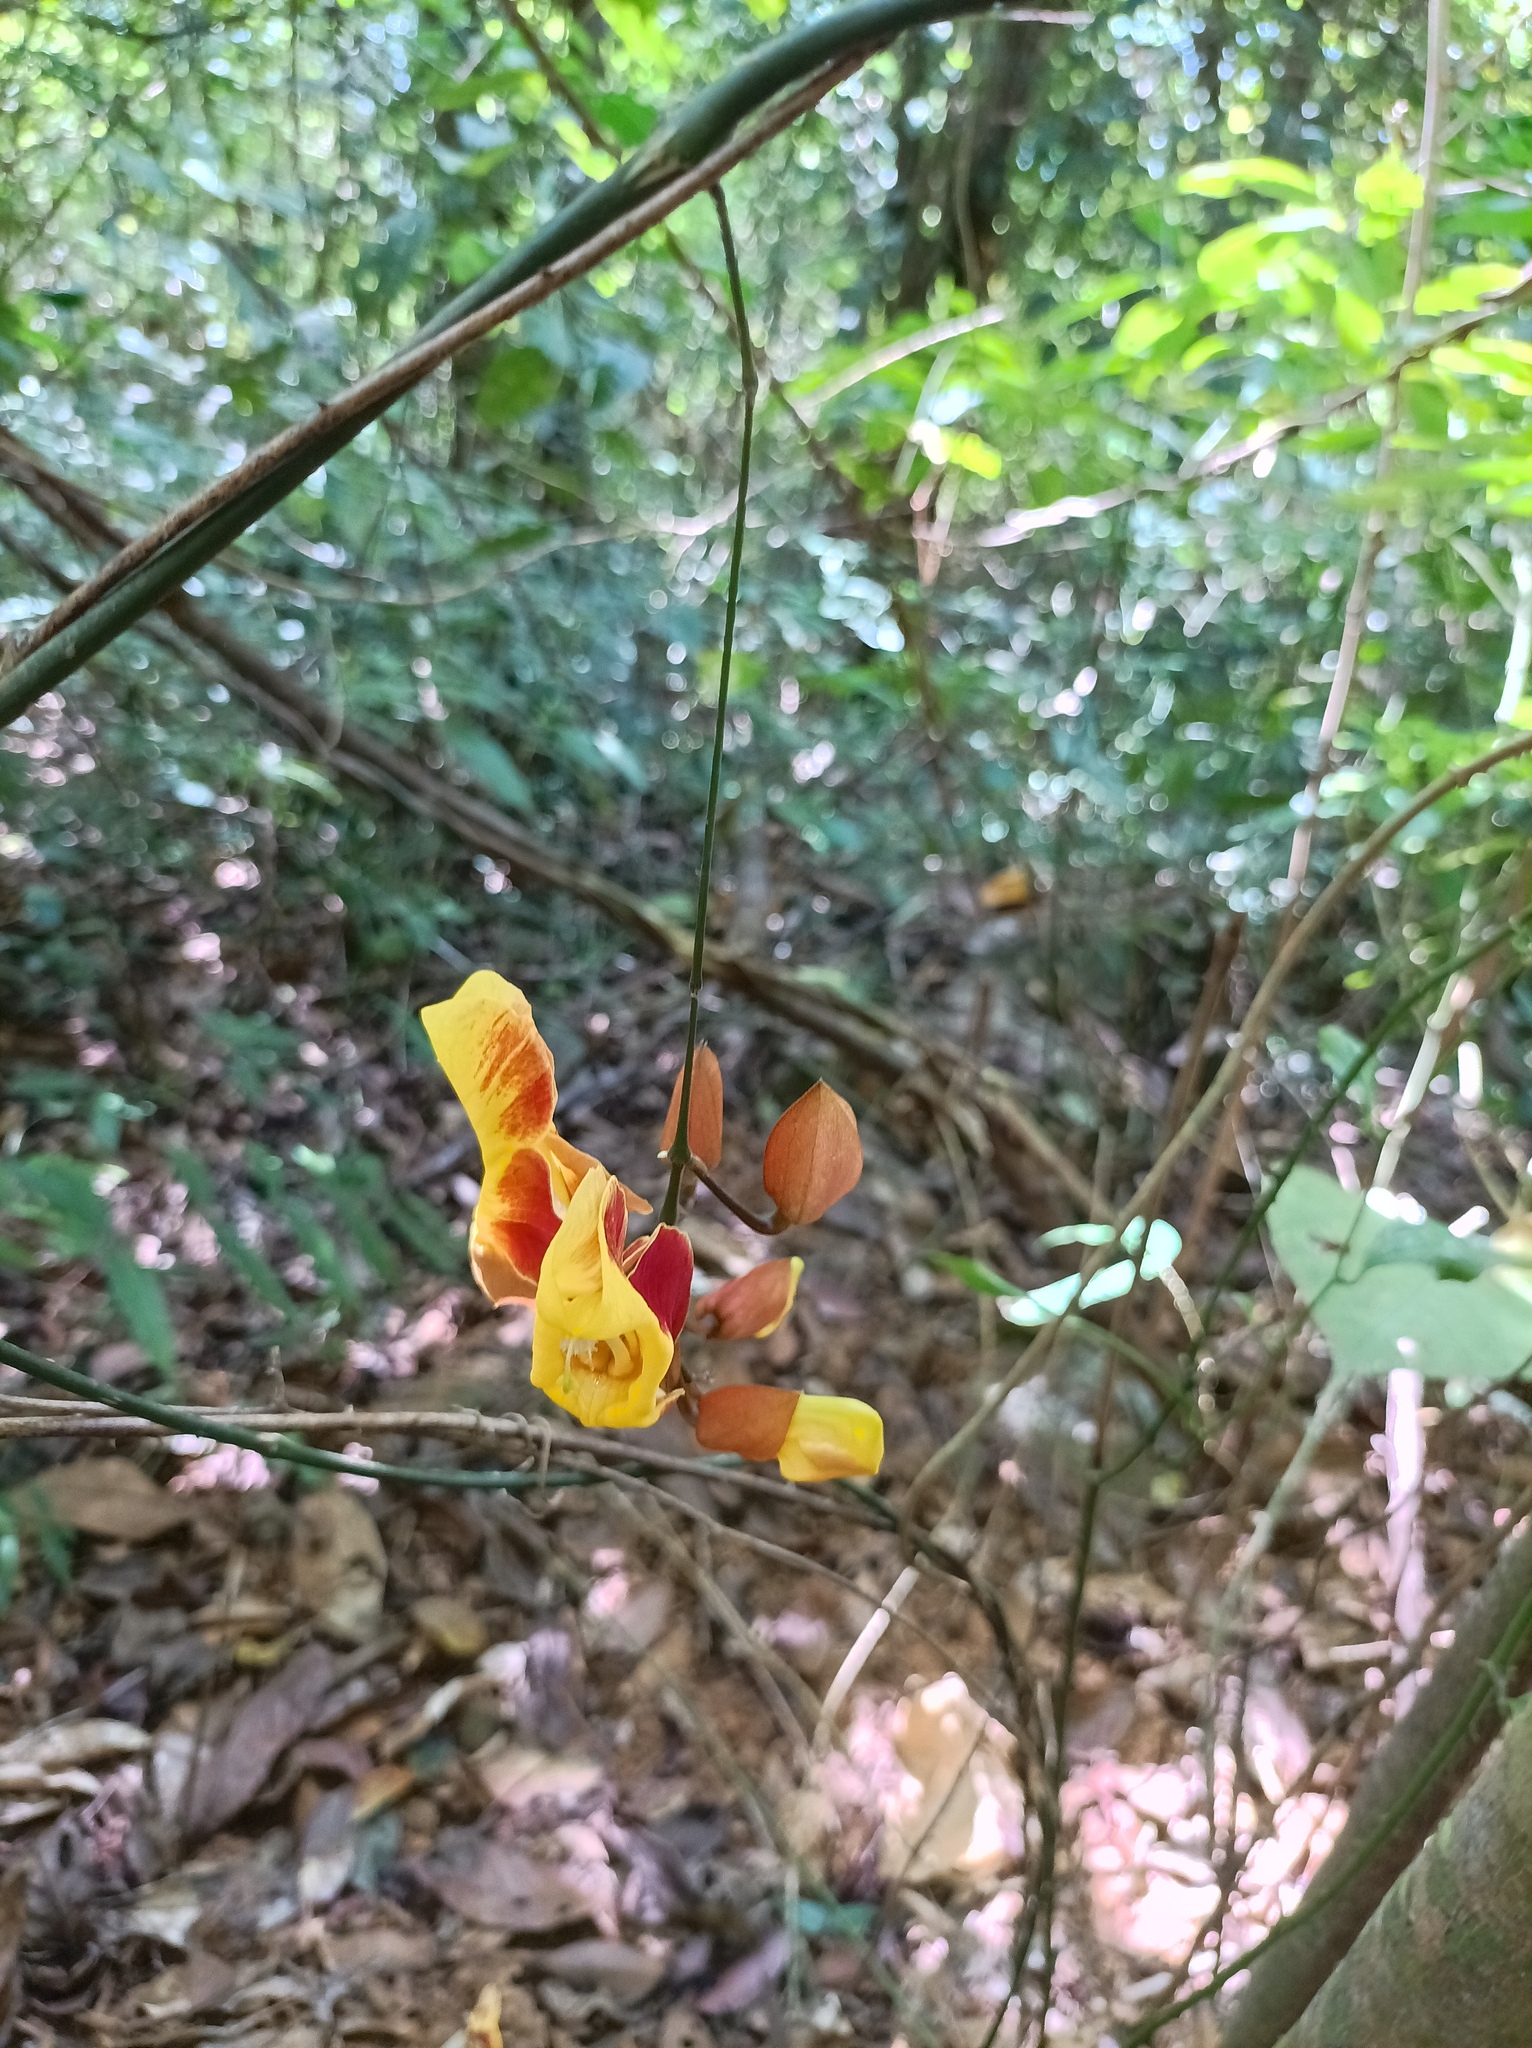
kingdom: Plantae
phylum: Tracheophyta
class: Magnoliopsida
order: Lamiales
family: Acanthaceae
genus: Thunbergia
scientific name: Thunbergia mysorensis
